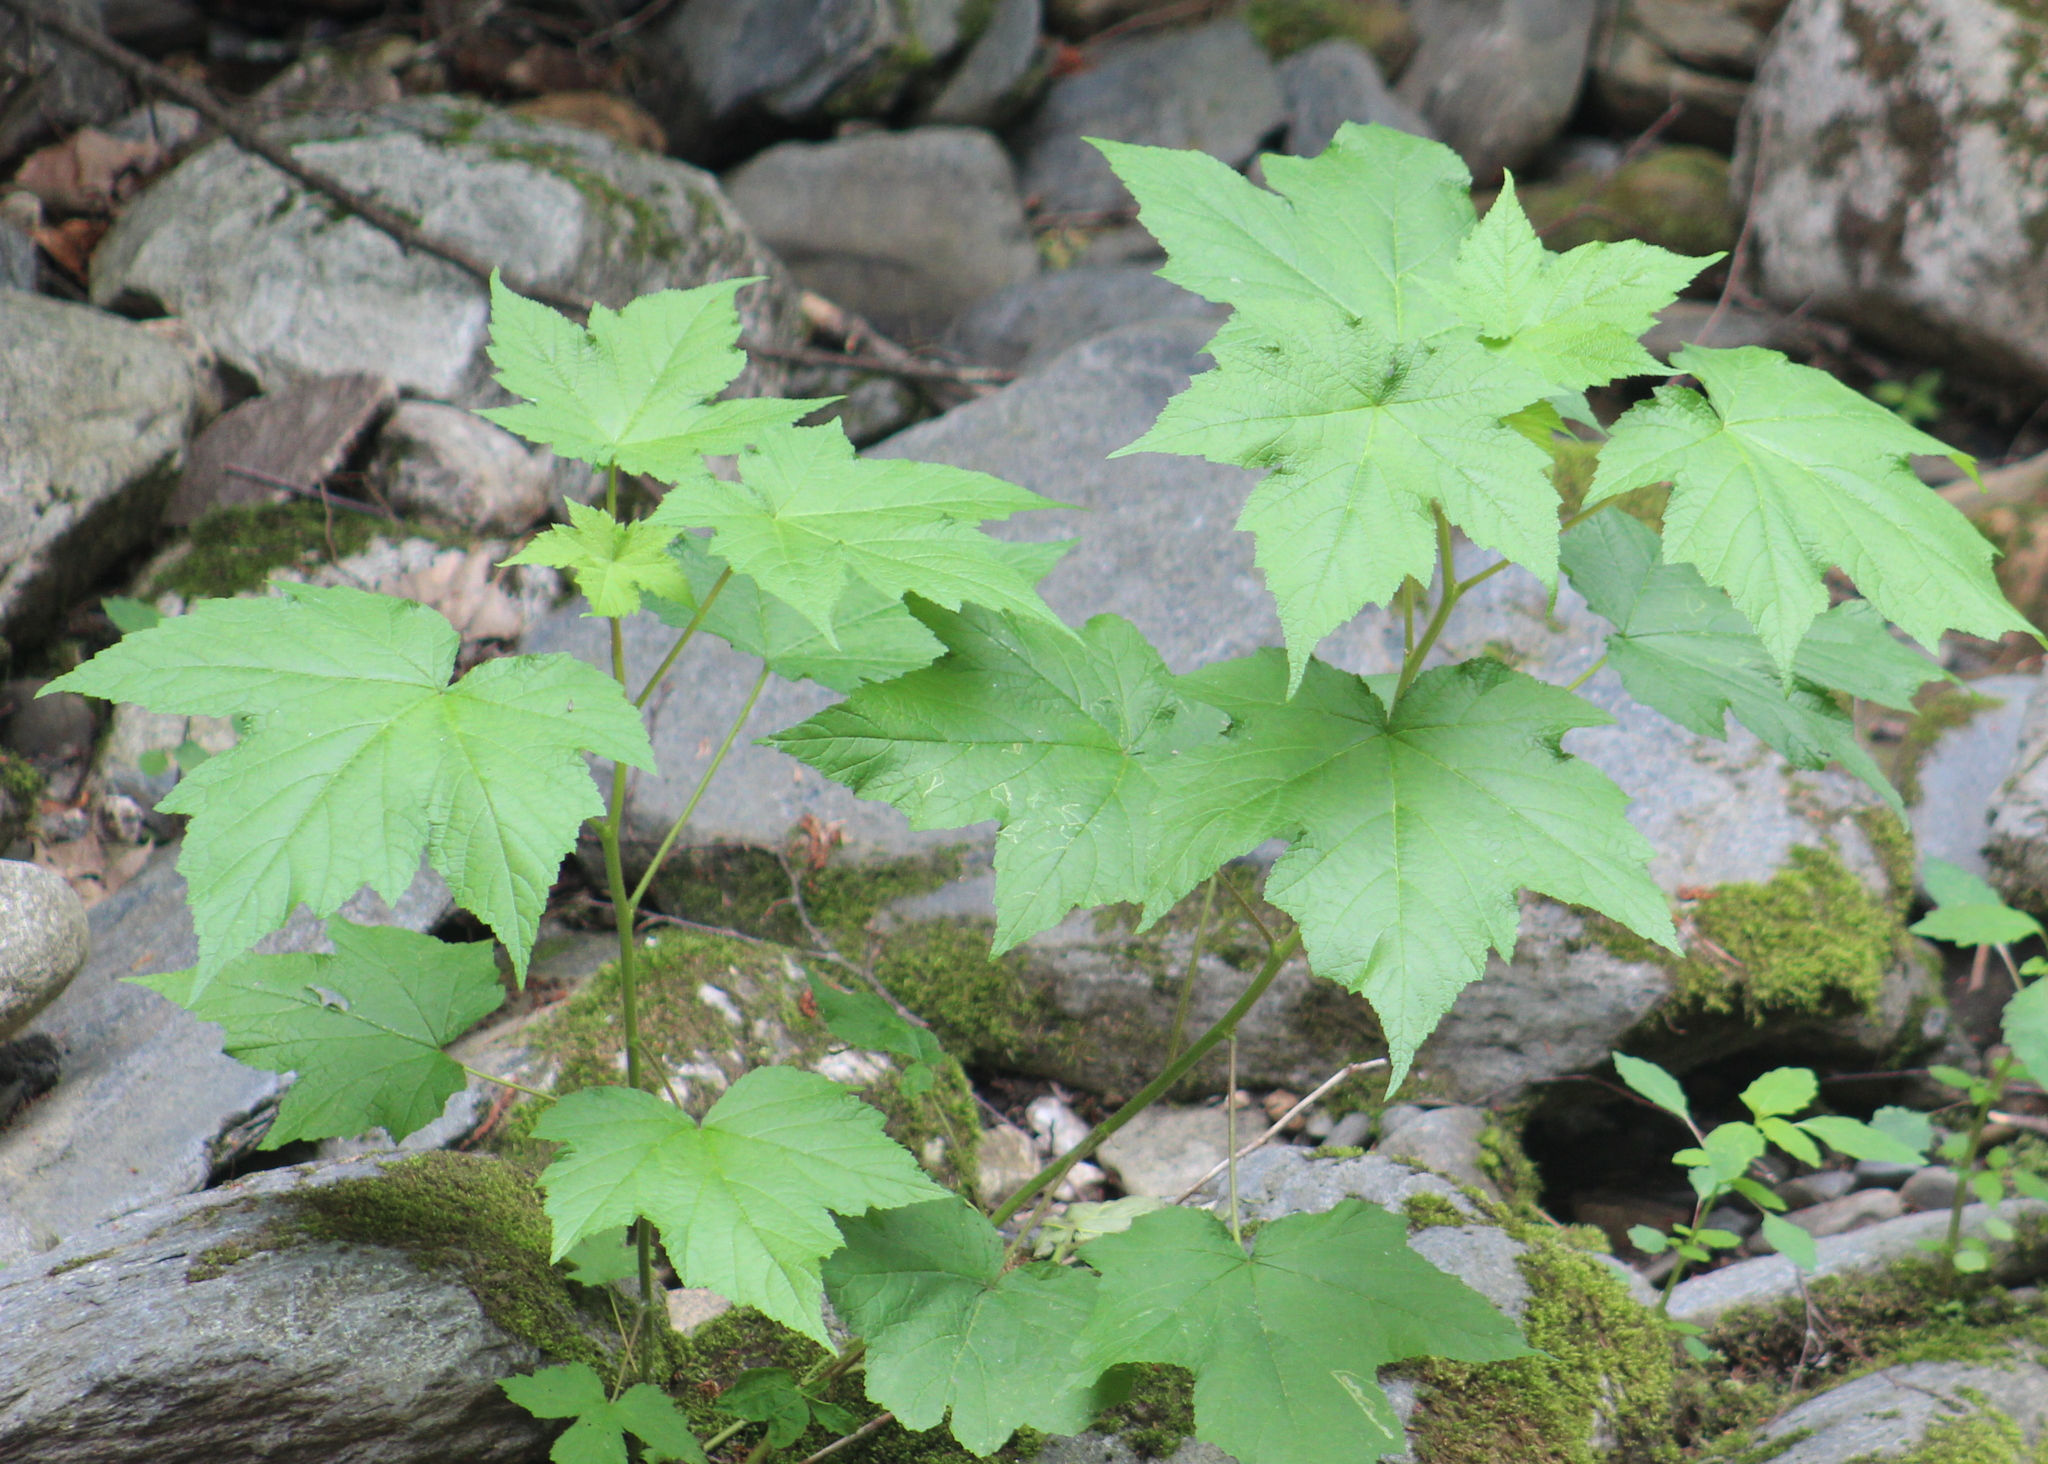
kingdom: Plantae
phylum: Tracheophyta
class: Magnoliopsida
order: Rosales
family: Rosaceae
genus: Rubus
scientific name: Rubus odoratus
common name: Purple-flowered raspberry
